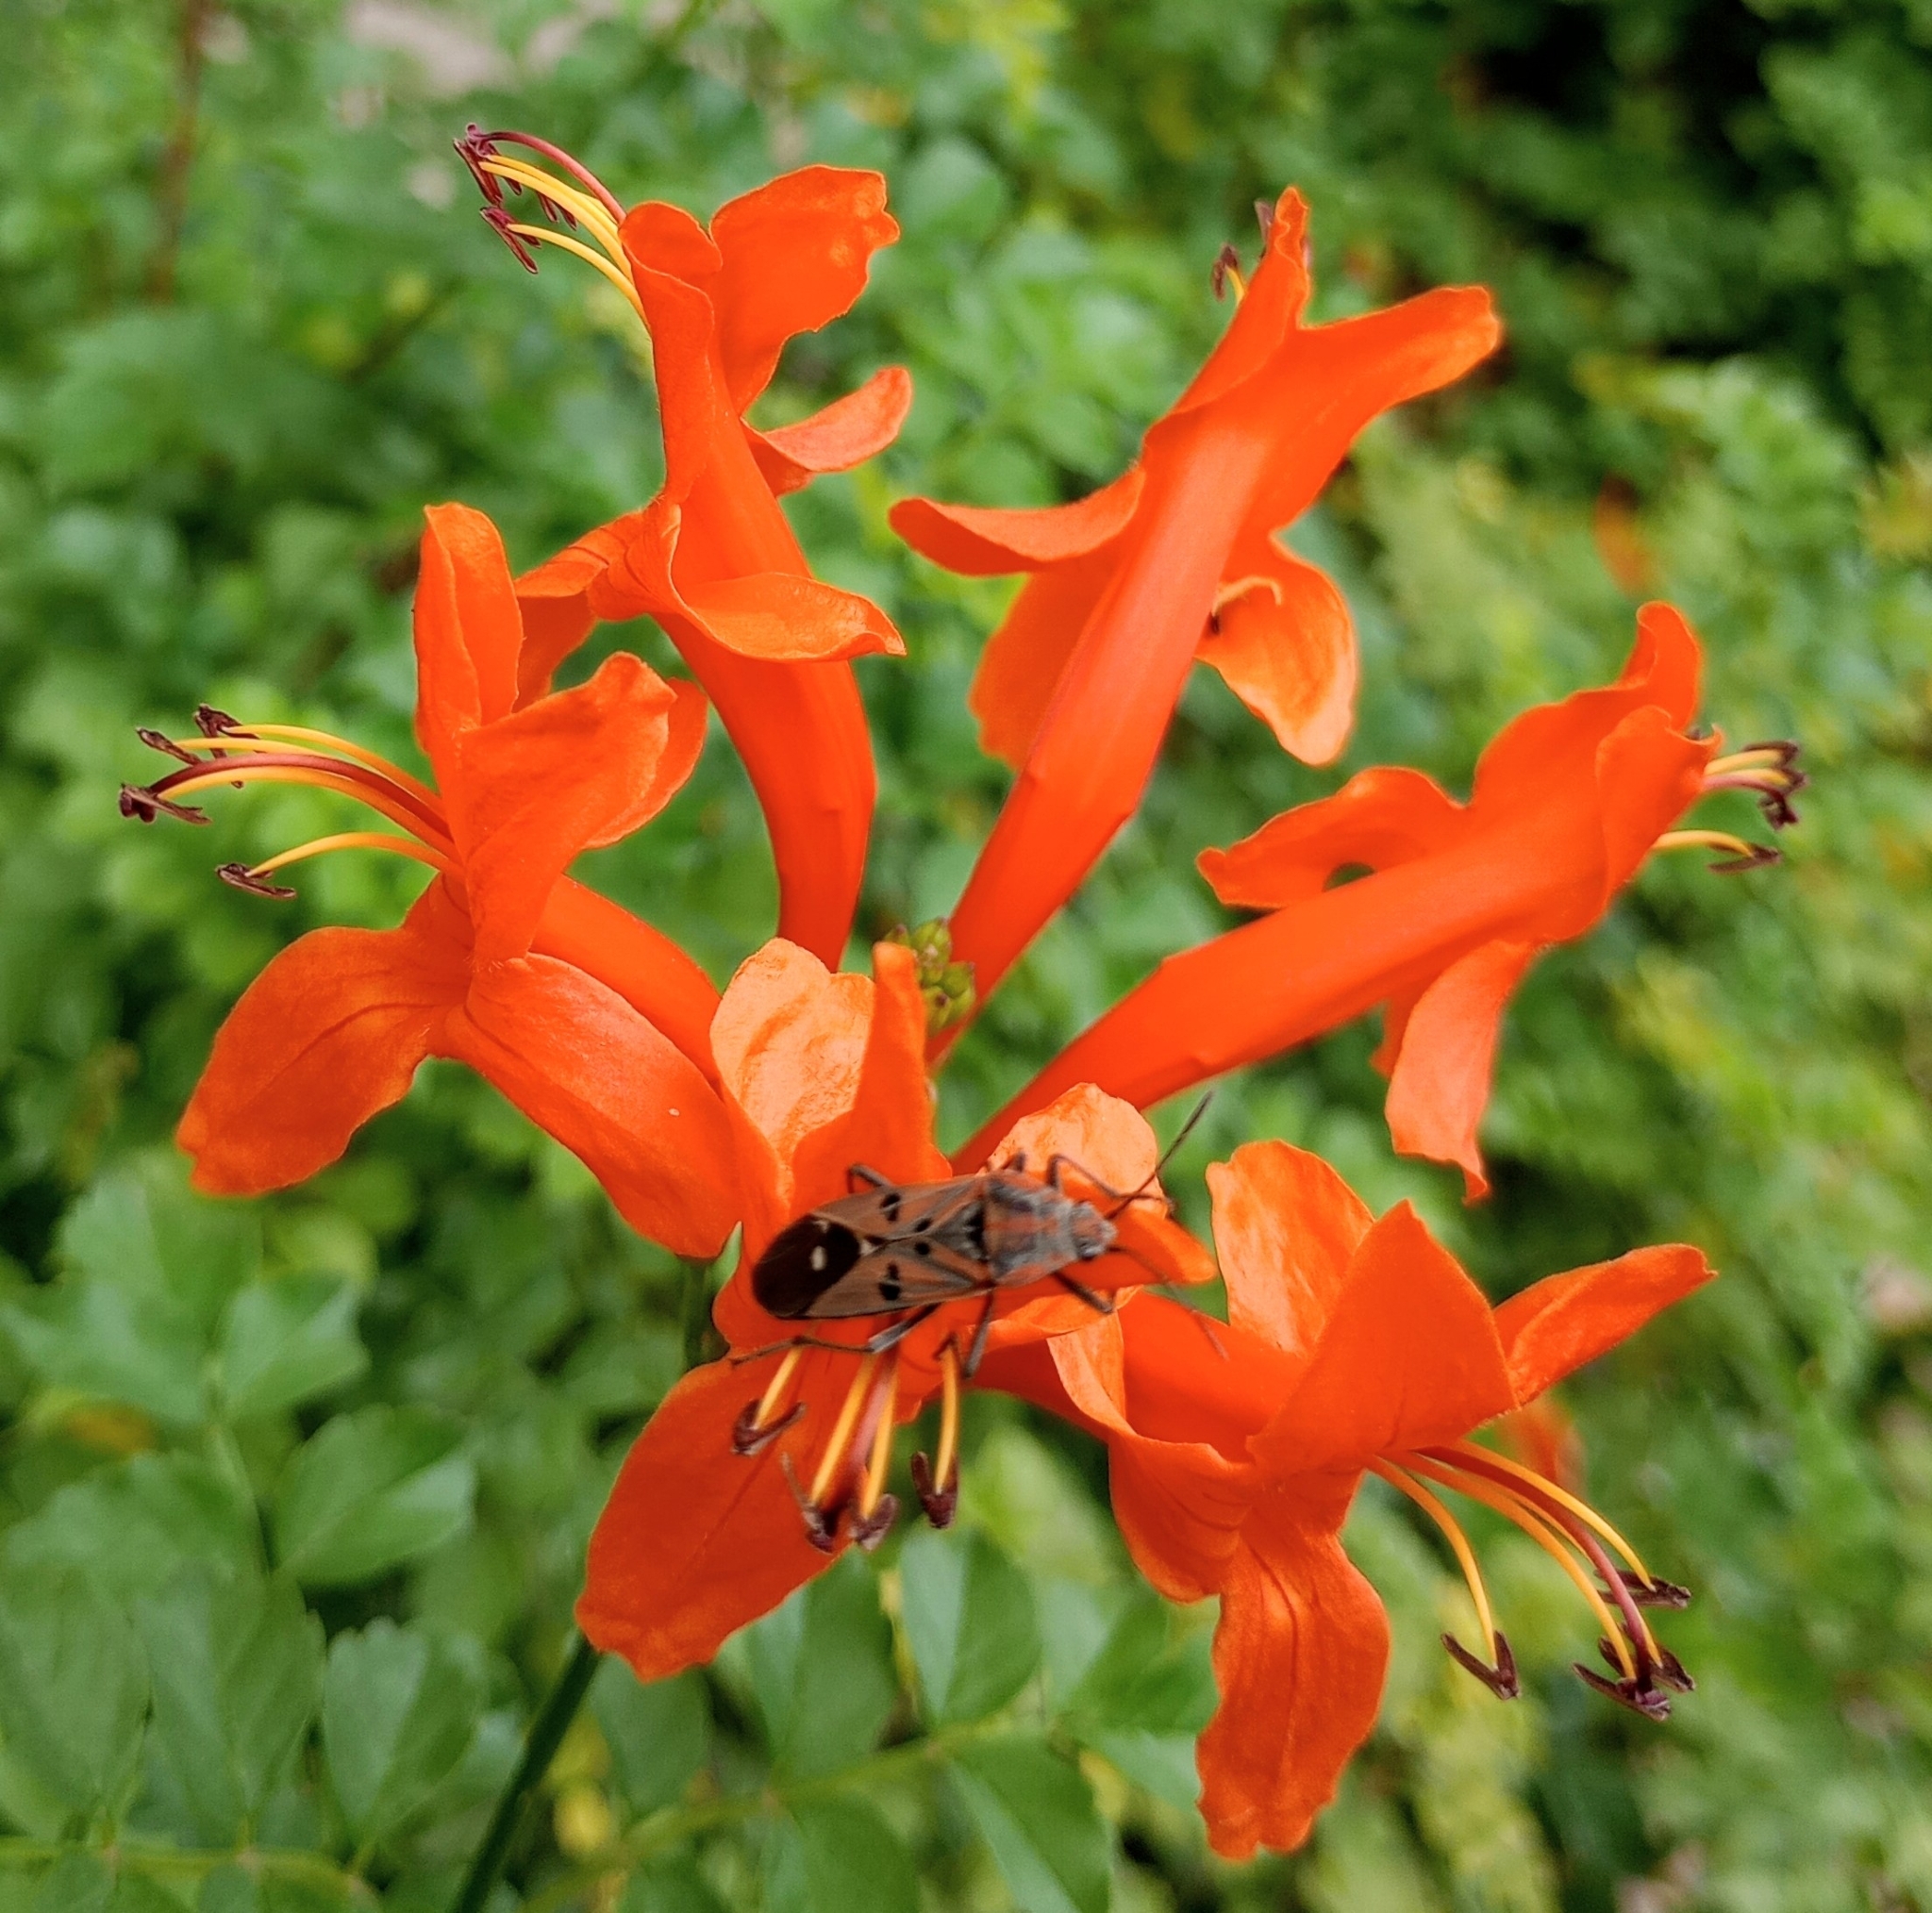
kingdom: Animalia
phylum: Arthropoda
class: Insecta
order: Hemiptera
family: Lygaeidae
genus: Spilostethus
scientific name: Spilostethus pandurus
